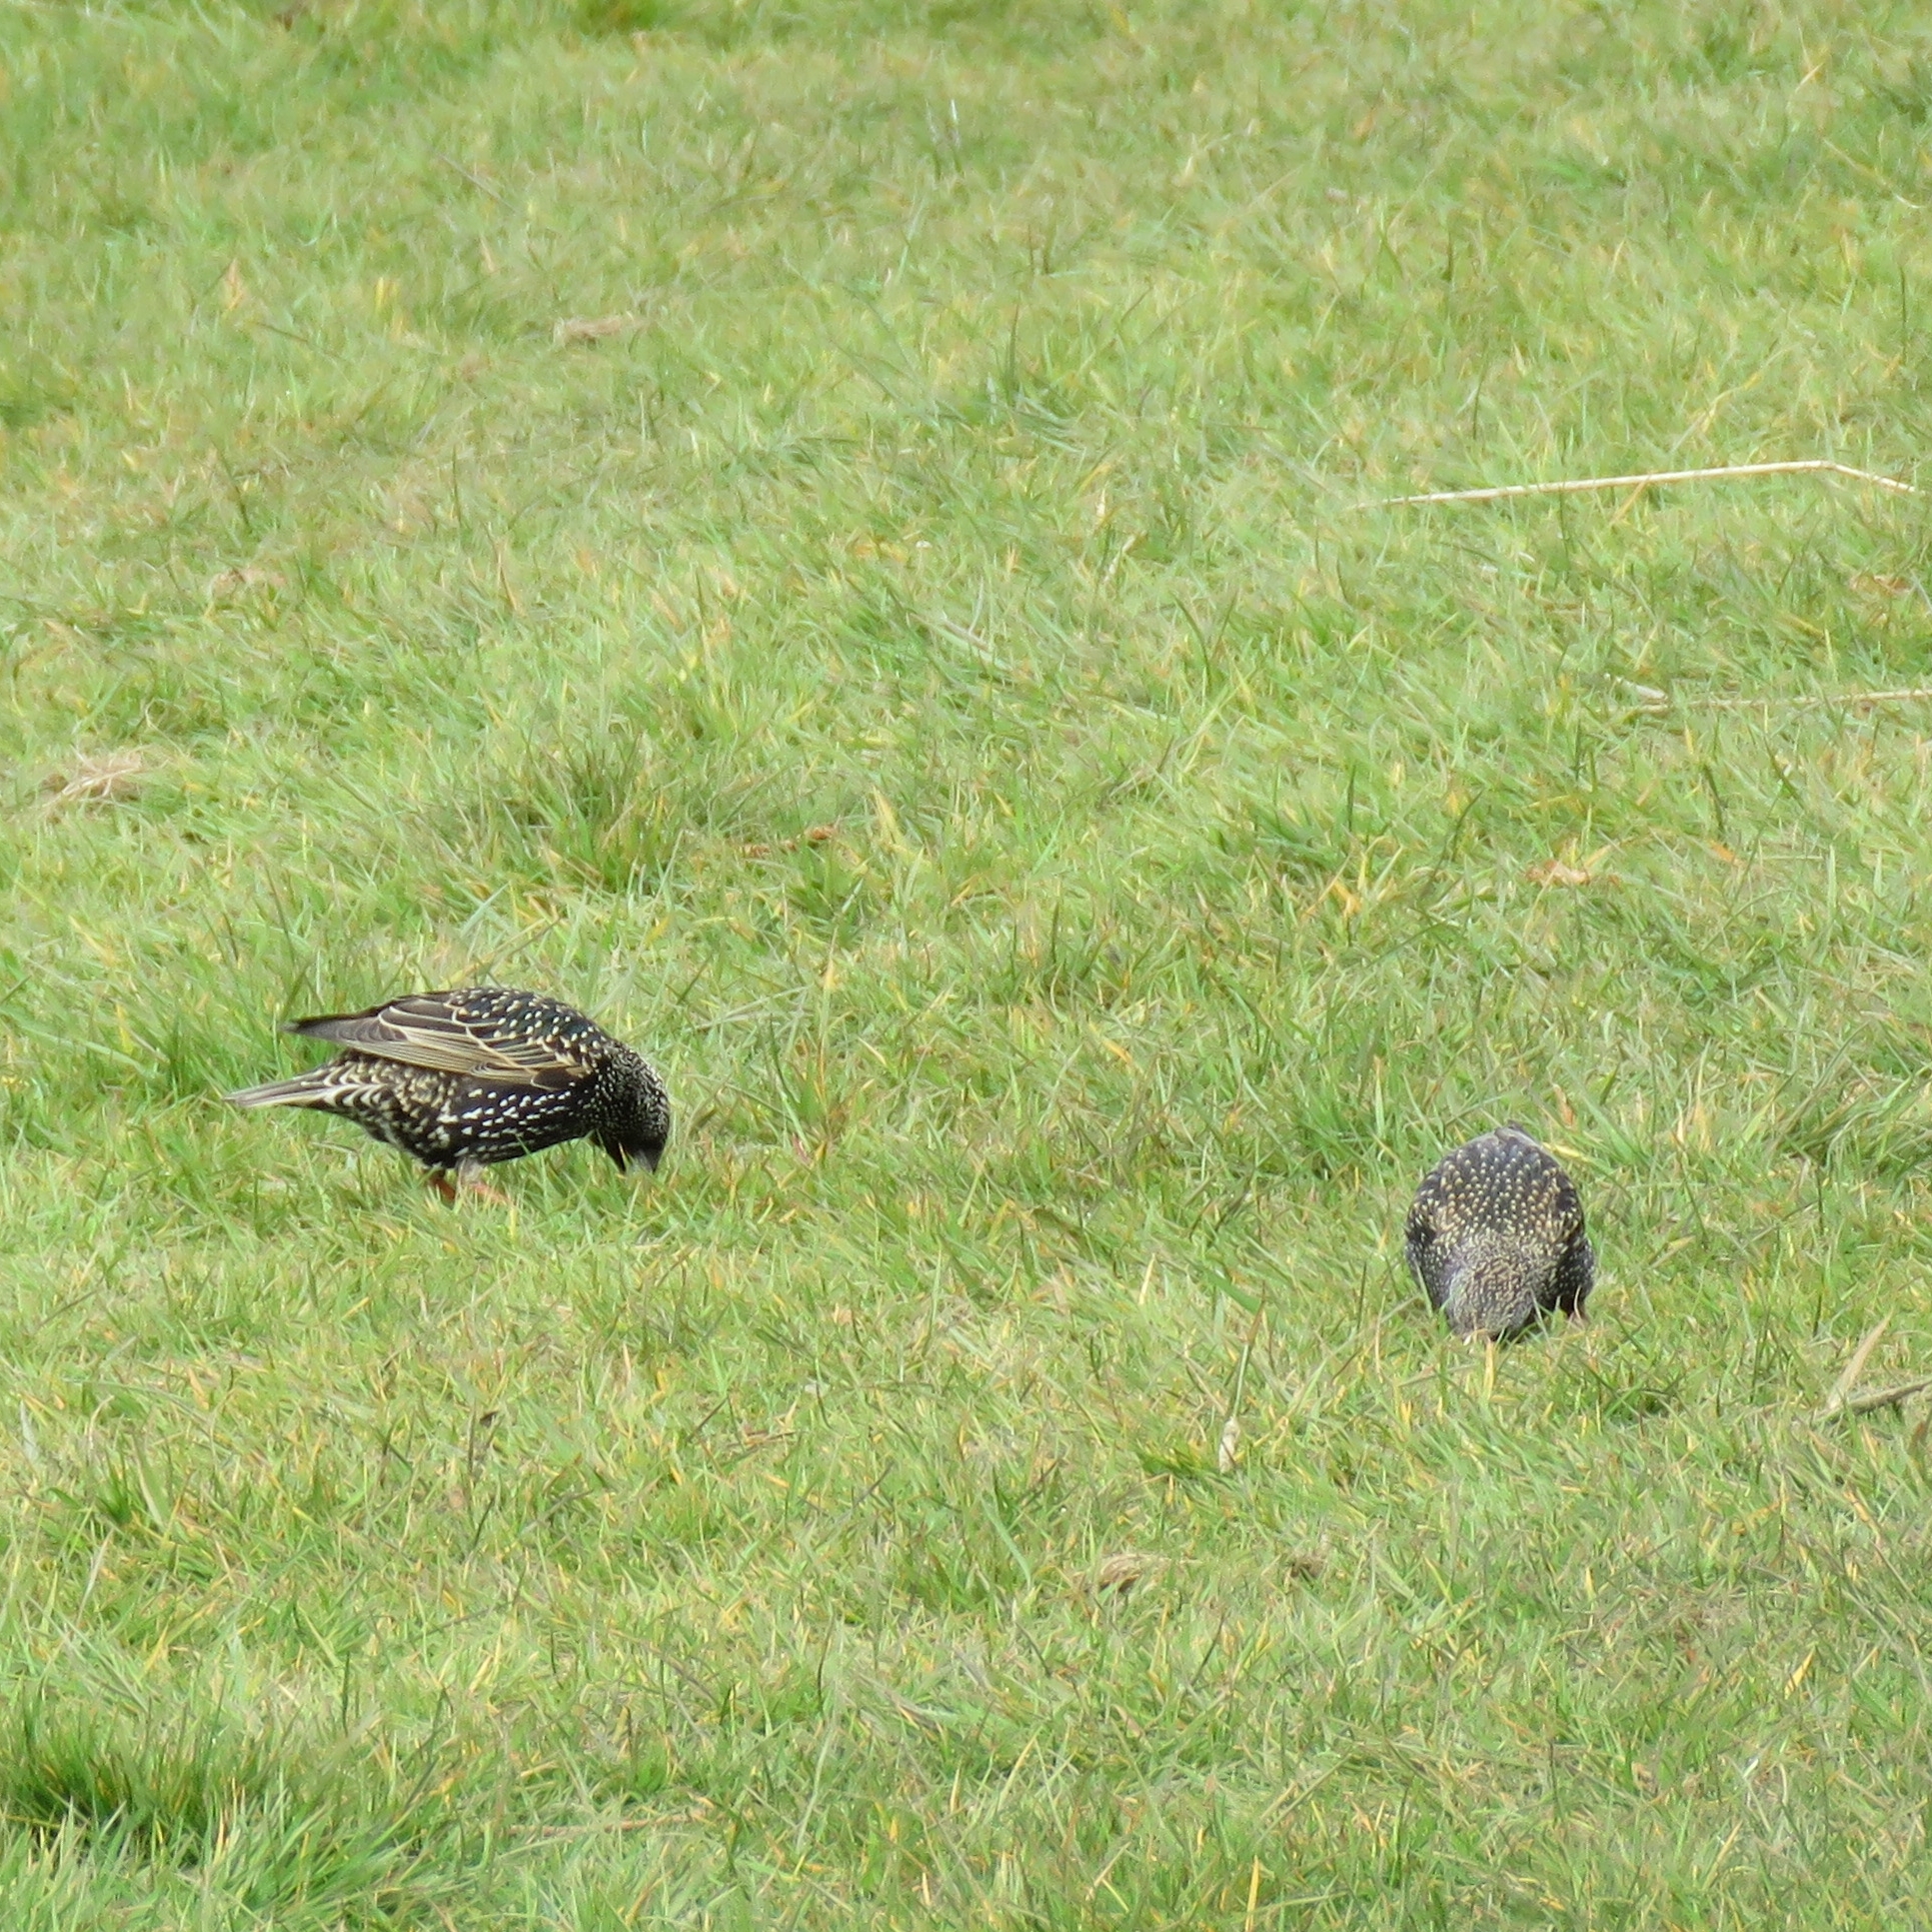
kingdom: Animalia
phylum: Chordata
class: Aves
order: Passeriformes
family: Sturnidae
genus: Sturnus
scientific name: Sturnus vulgaris
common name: Common starling
